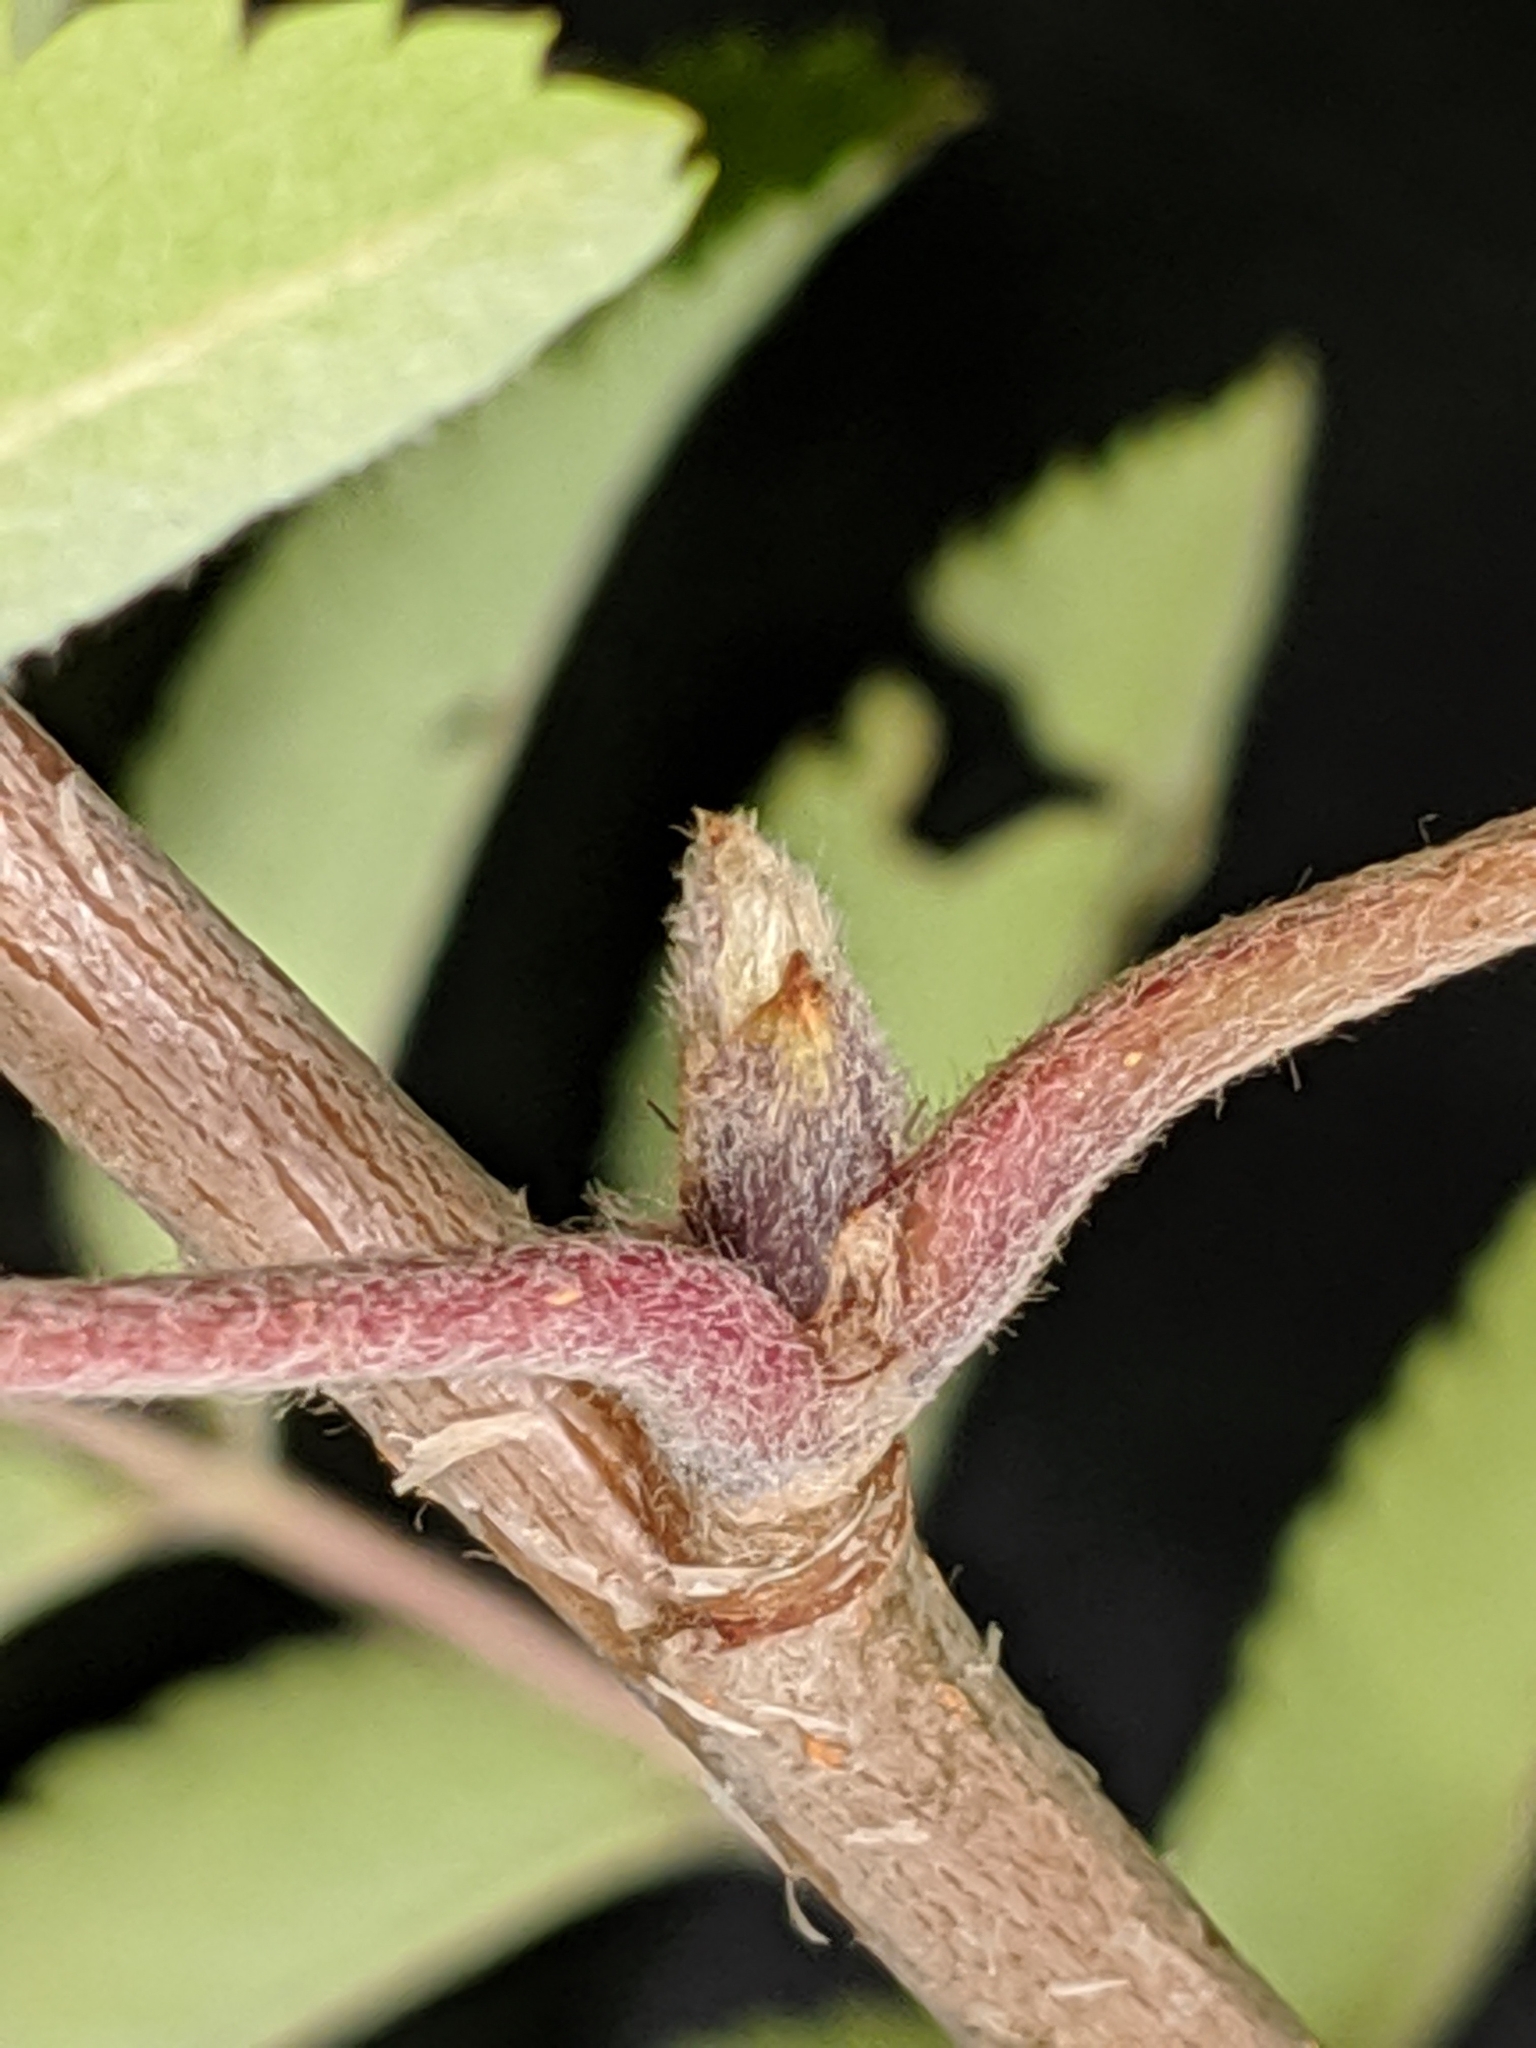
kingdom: Plantae
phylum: Tracheophyta
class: Magnoliopsida
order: Rosales
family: Rosaceae
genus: Sorbus
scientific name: Sorbus aucuparia
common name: Rowan
